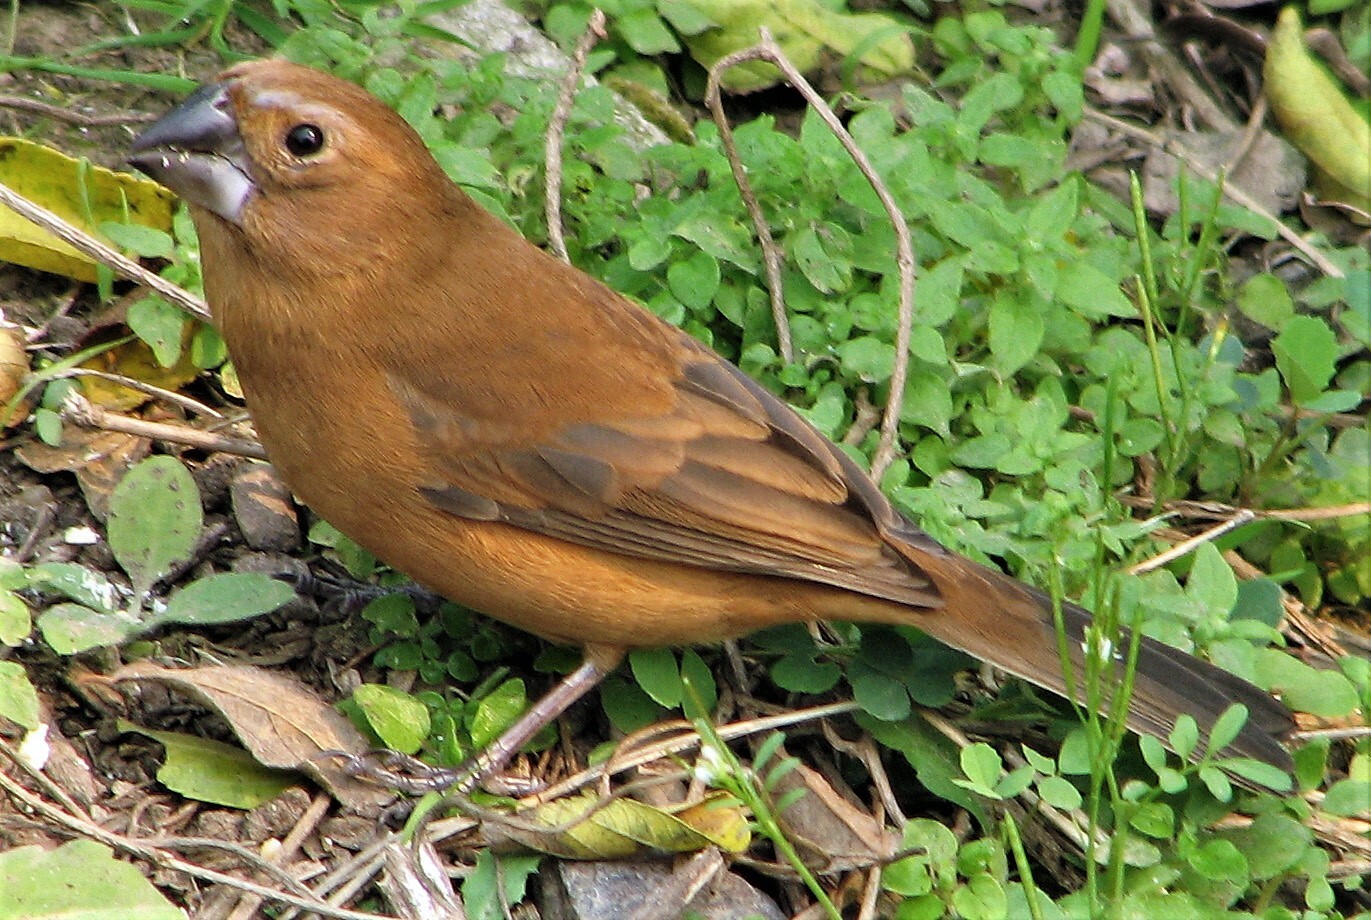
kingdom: Animalia
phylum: Chordata
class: Aves
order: Passeriformes
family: Cardinalidae
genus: Cyanoloxia
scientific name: Cyanoloxia brissonii
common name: Ultramarine grosbeak
